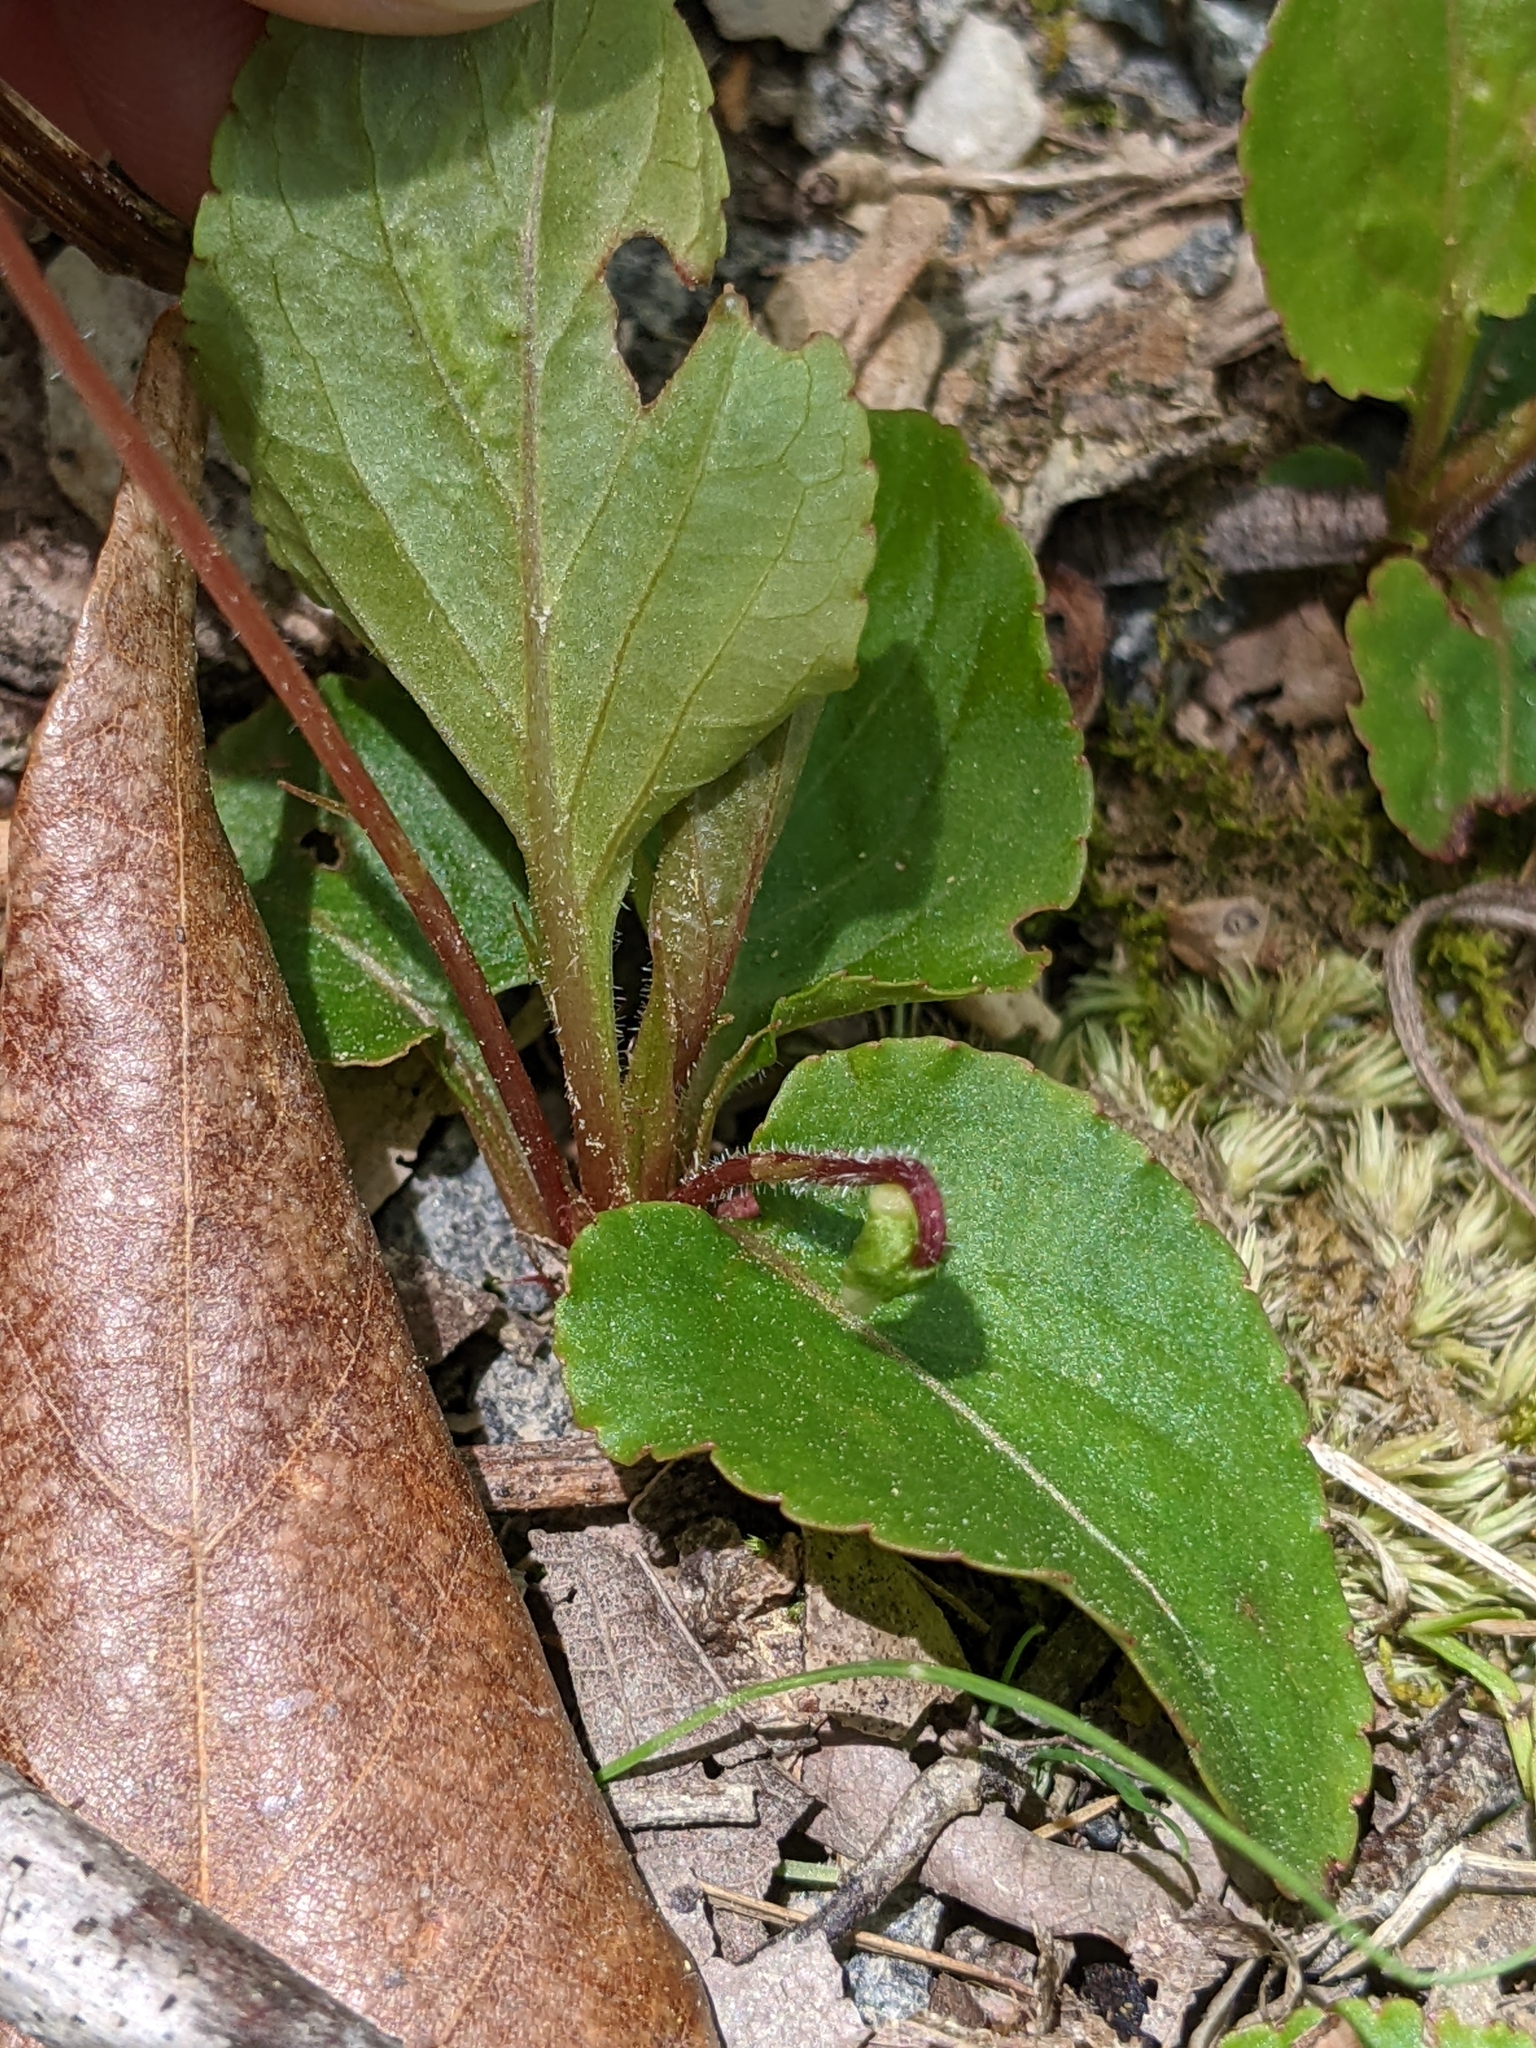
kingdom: Plantae
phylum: Tracheophyta
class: Magnoliopsida
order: Malpighiales
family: Violaceae
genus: Viola
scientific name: Viola primulifolia
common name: Primrose-leaf violet
